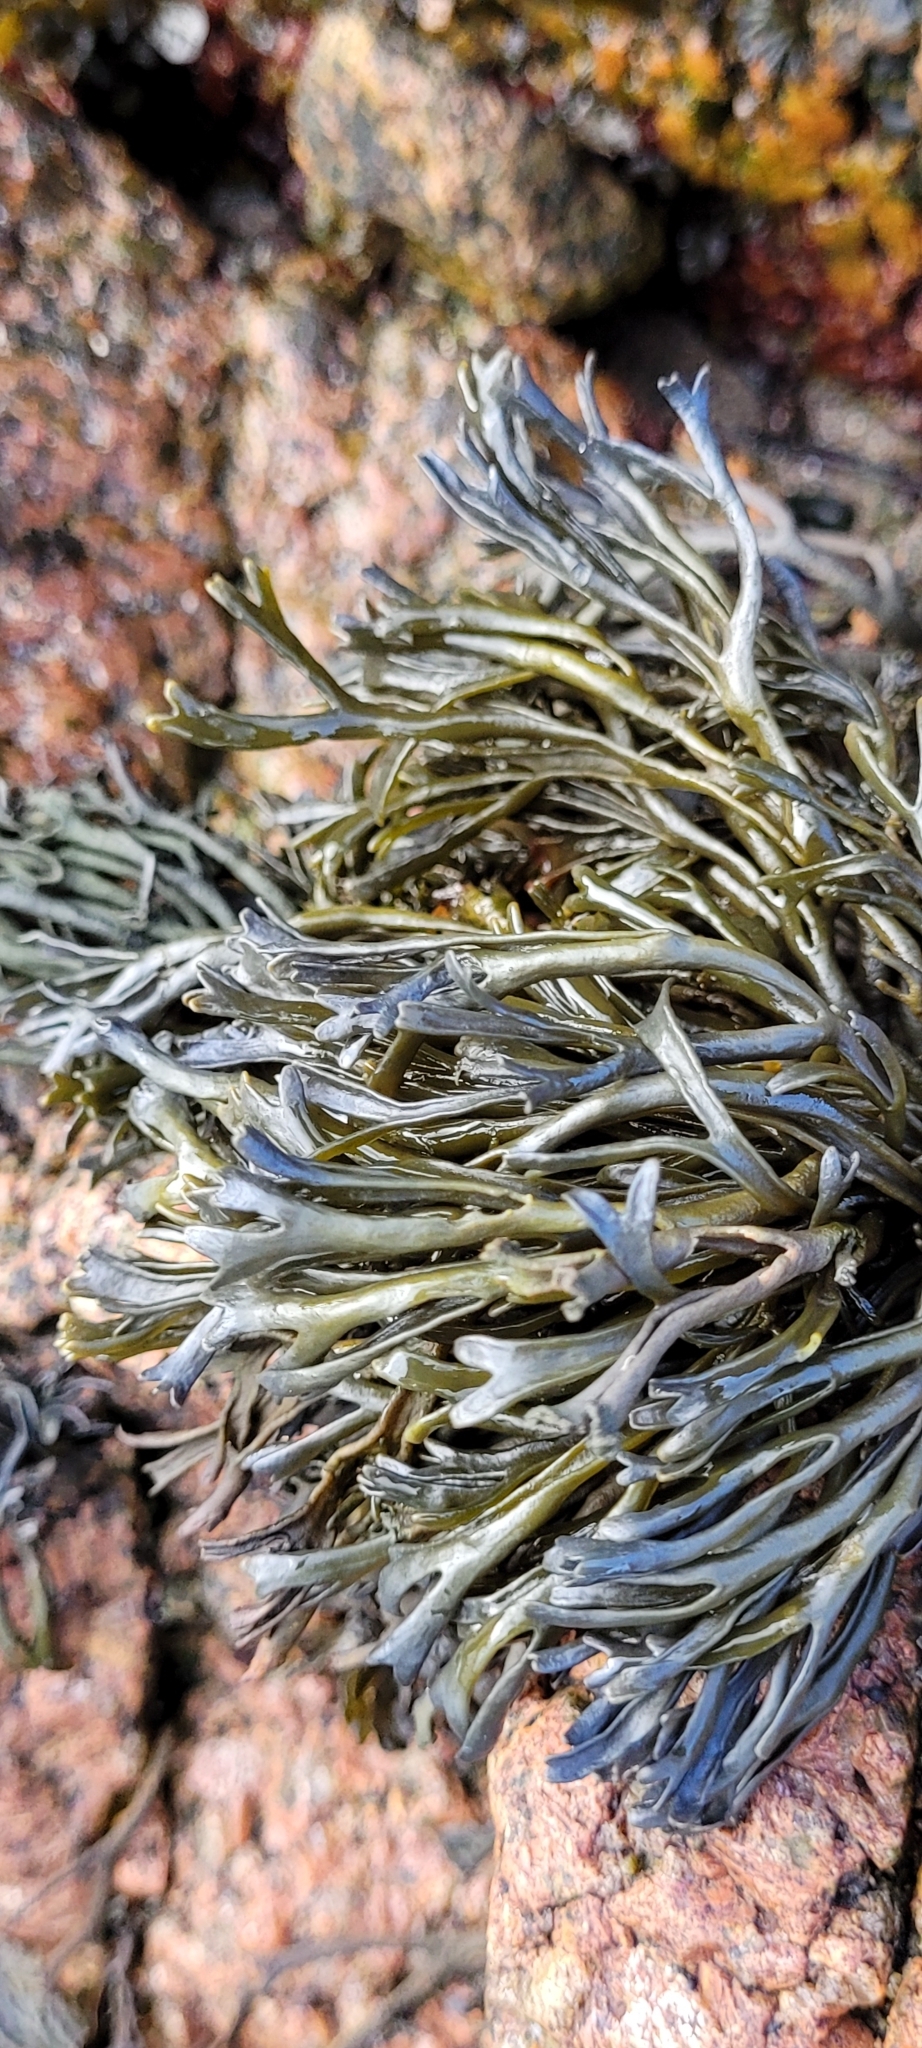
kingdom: Chromista
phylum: Ochrophyta
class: Phaeophyceae
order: Fucales
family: Fucaceae
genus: Pelvetia
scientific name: Pelvetia canaliculata
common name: Channelled wrack
